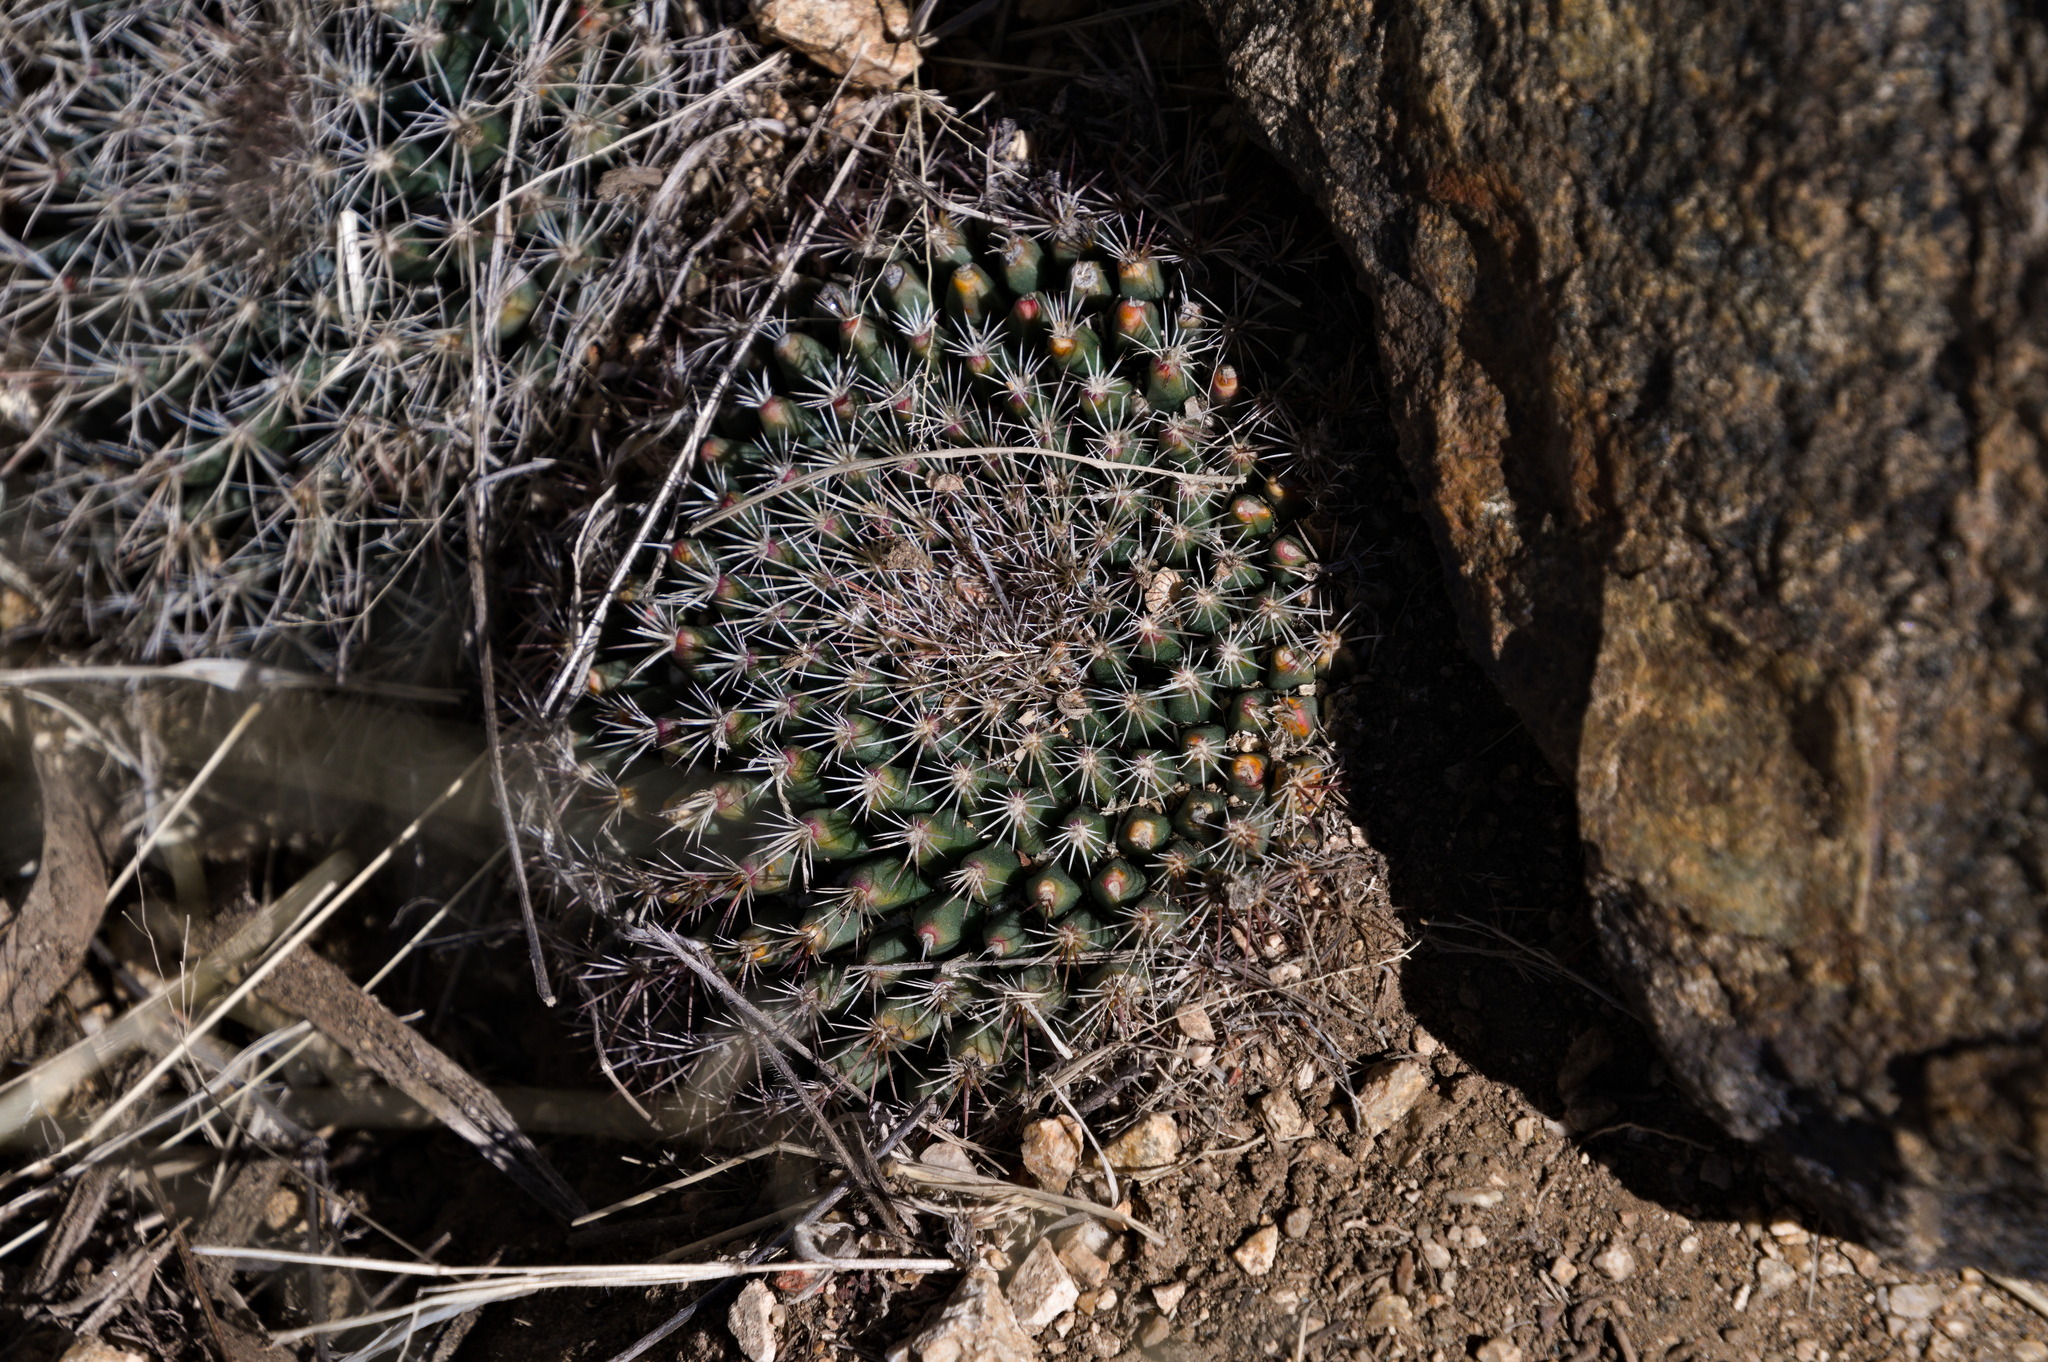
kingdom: Plantae
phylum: Tracheophyta
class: Magnoliopsida
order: Caryophyllales
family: Cactaceae
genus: Mammillaria
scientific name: Mammillaria heyderi
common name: Little nipple cactus
